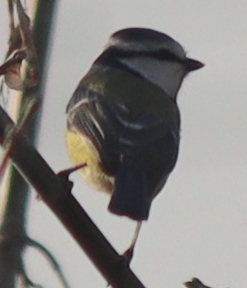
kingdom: Animalia
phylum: Chordata
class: Aves
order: Passeriformes
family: Paridae
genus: Cyanistes
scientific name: Cyanistes caeruleus
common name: Eurasian blue tit
